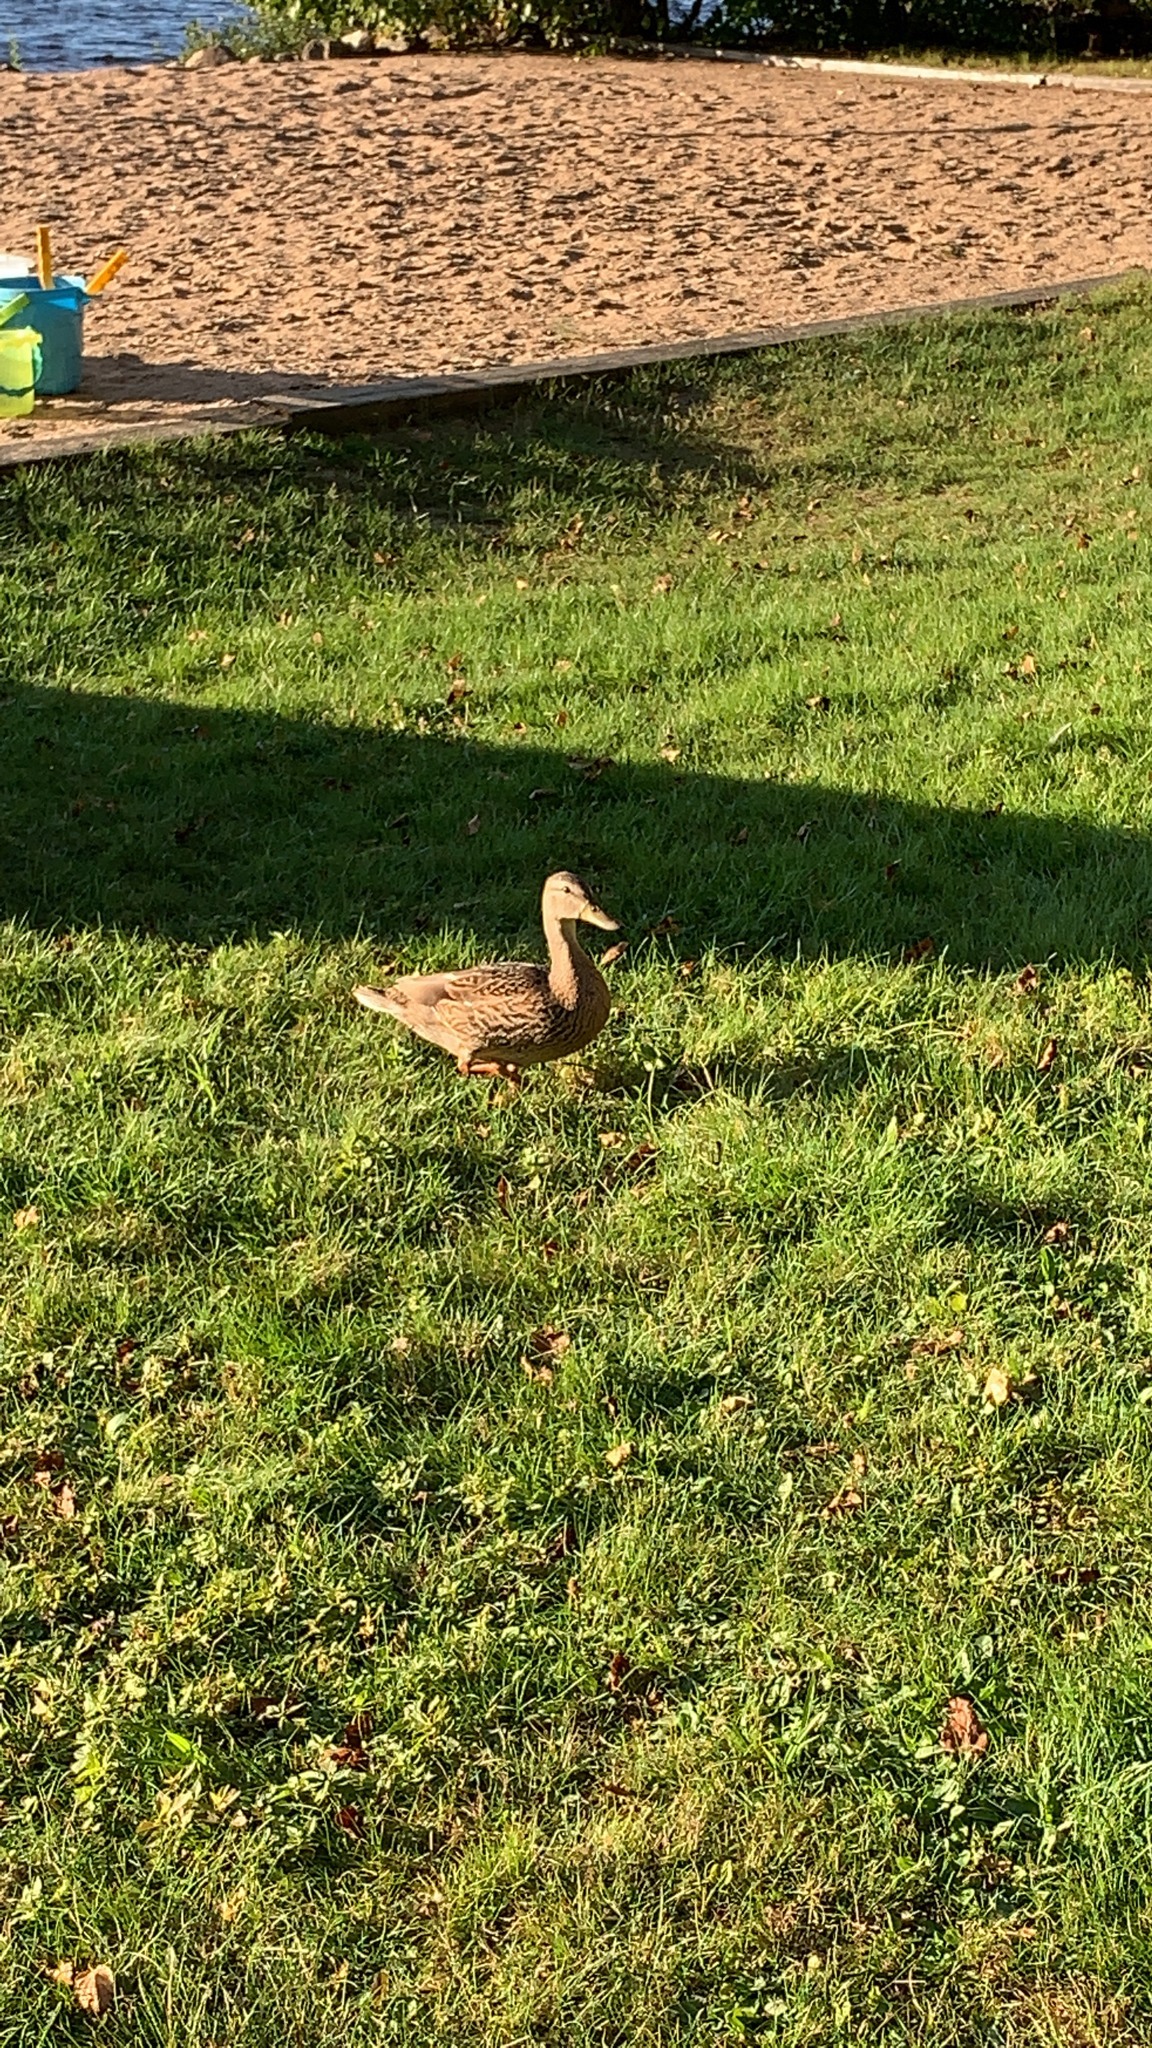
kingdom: Animalia
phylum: Chordata
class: Aves
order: Anseriformes
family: Anatidae
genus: Anas
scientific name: Anas platyrhynchos
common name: Mallard
